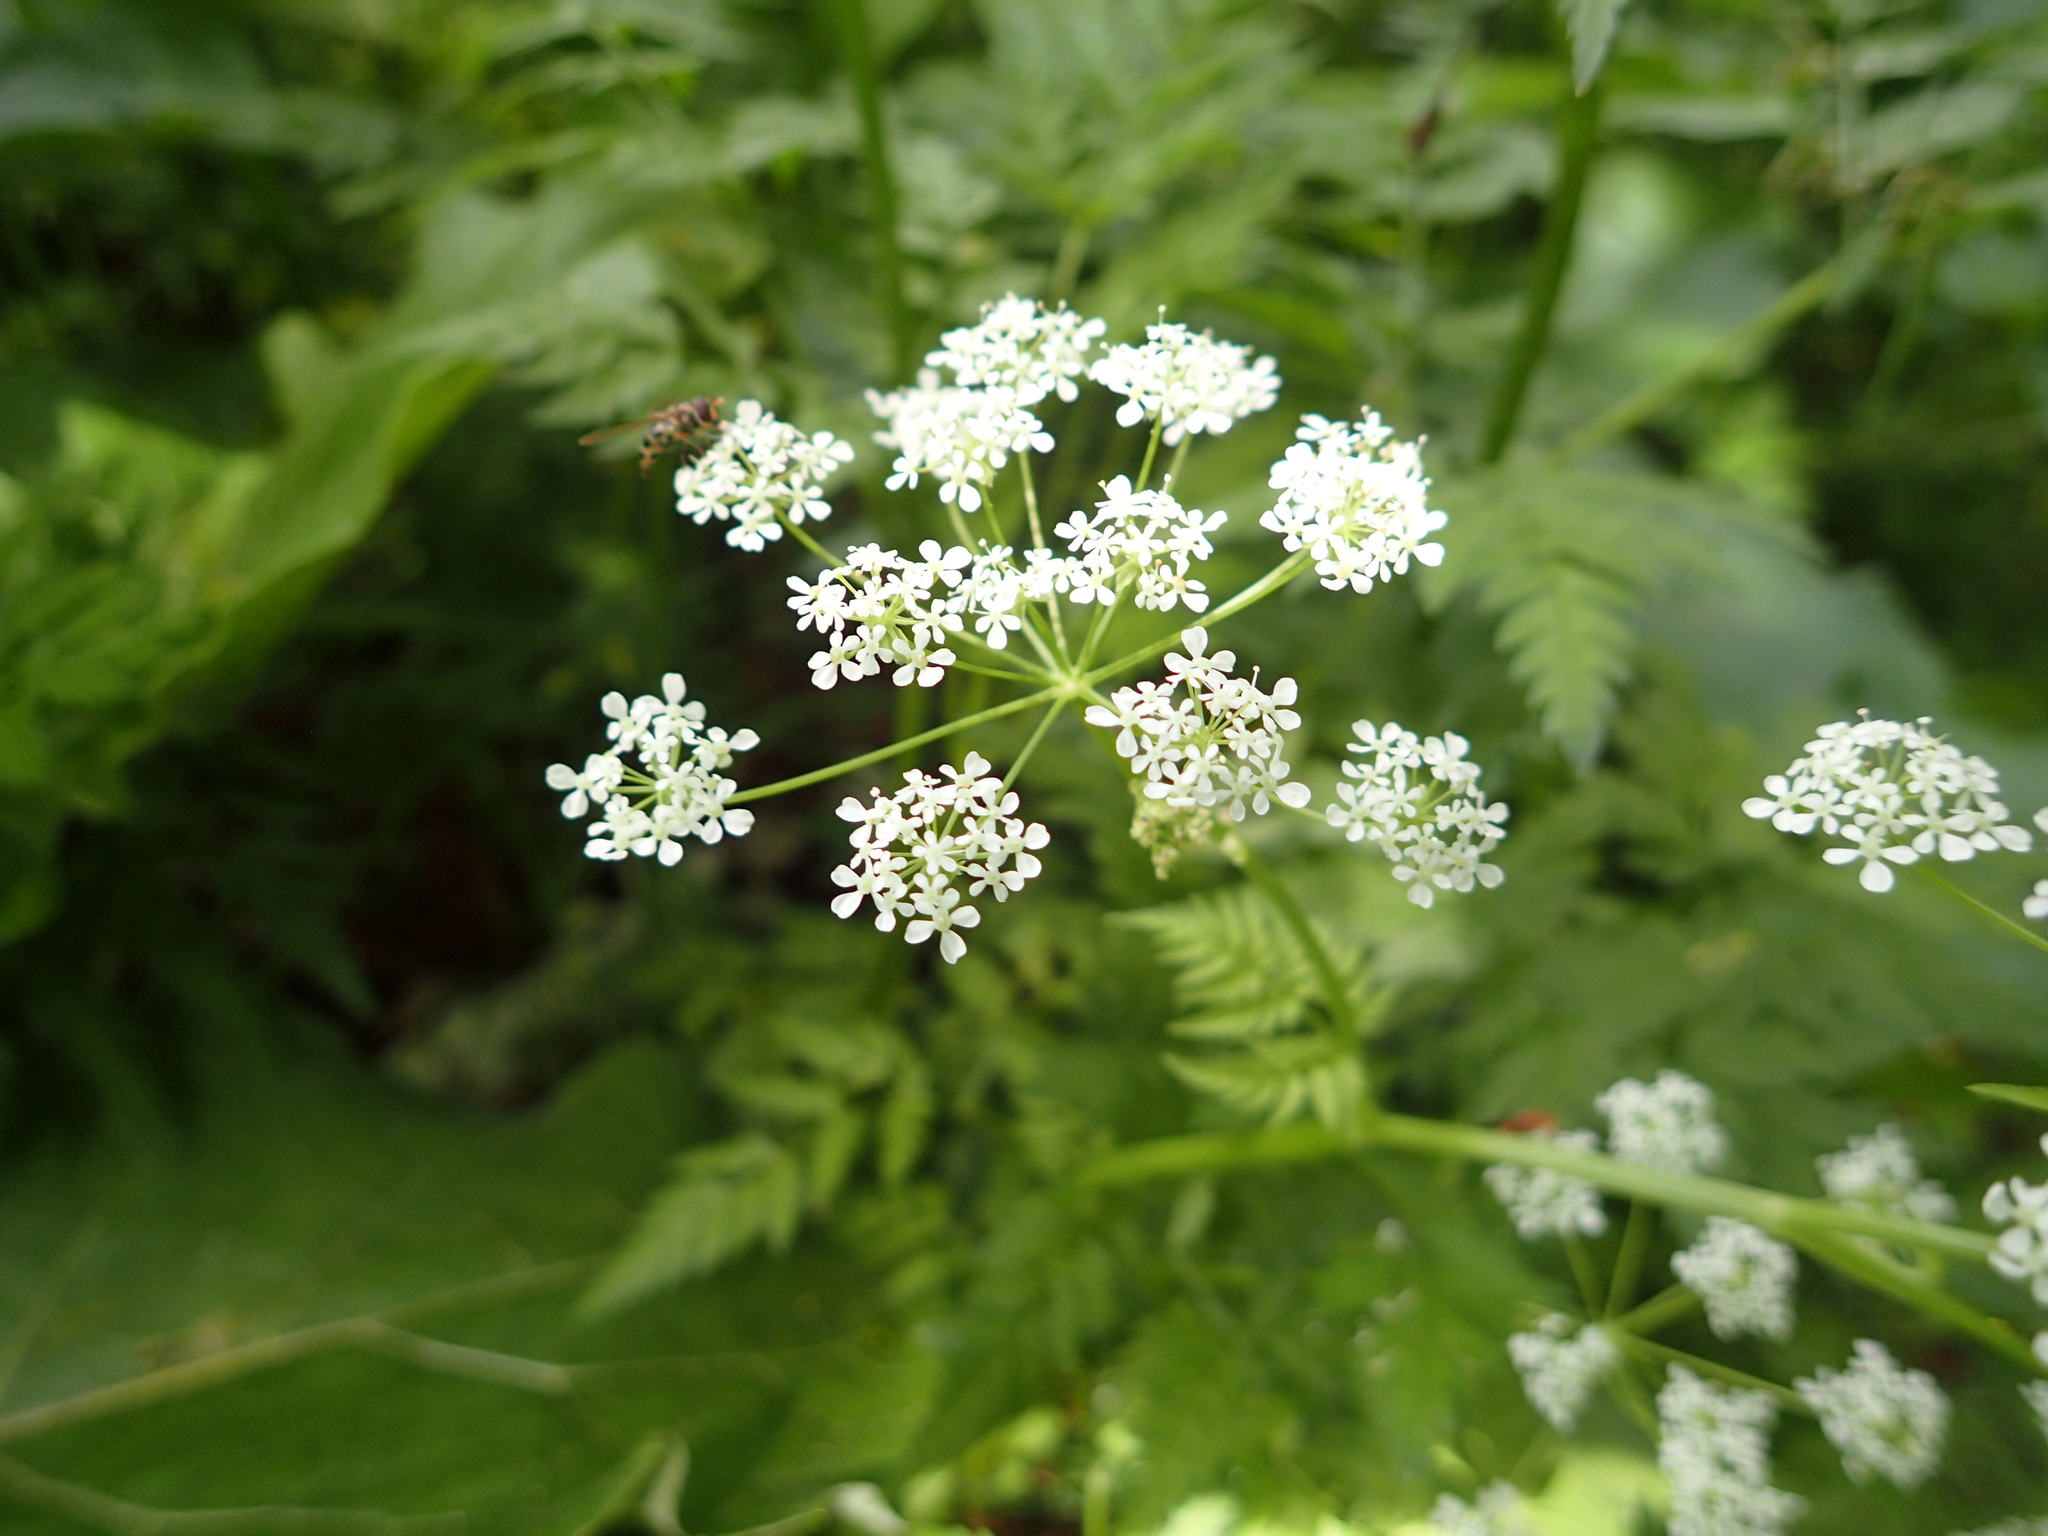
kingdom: Plantae
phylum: Tracheophyta
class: Magnoliopsida
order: Apiales
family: Apiaceae
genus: Anthriscus
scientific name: Anthriscus sylvestris
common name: Cow parsley
